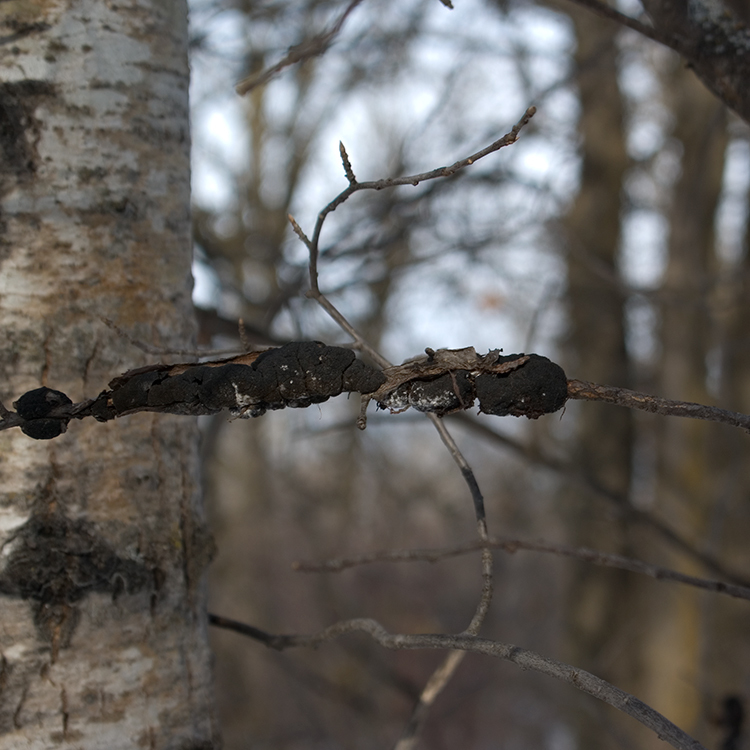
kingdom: Fungi
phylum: Ascomycota
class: Dothideomycetes
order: Venturiales
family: Venturiaceae
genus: Apiosporina
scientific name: Apiosporina morbosa
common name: Black knot
